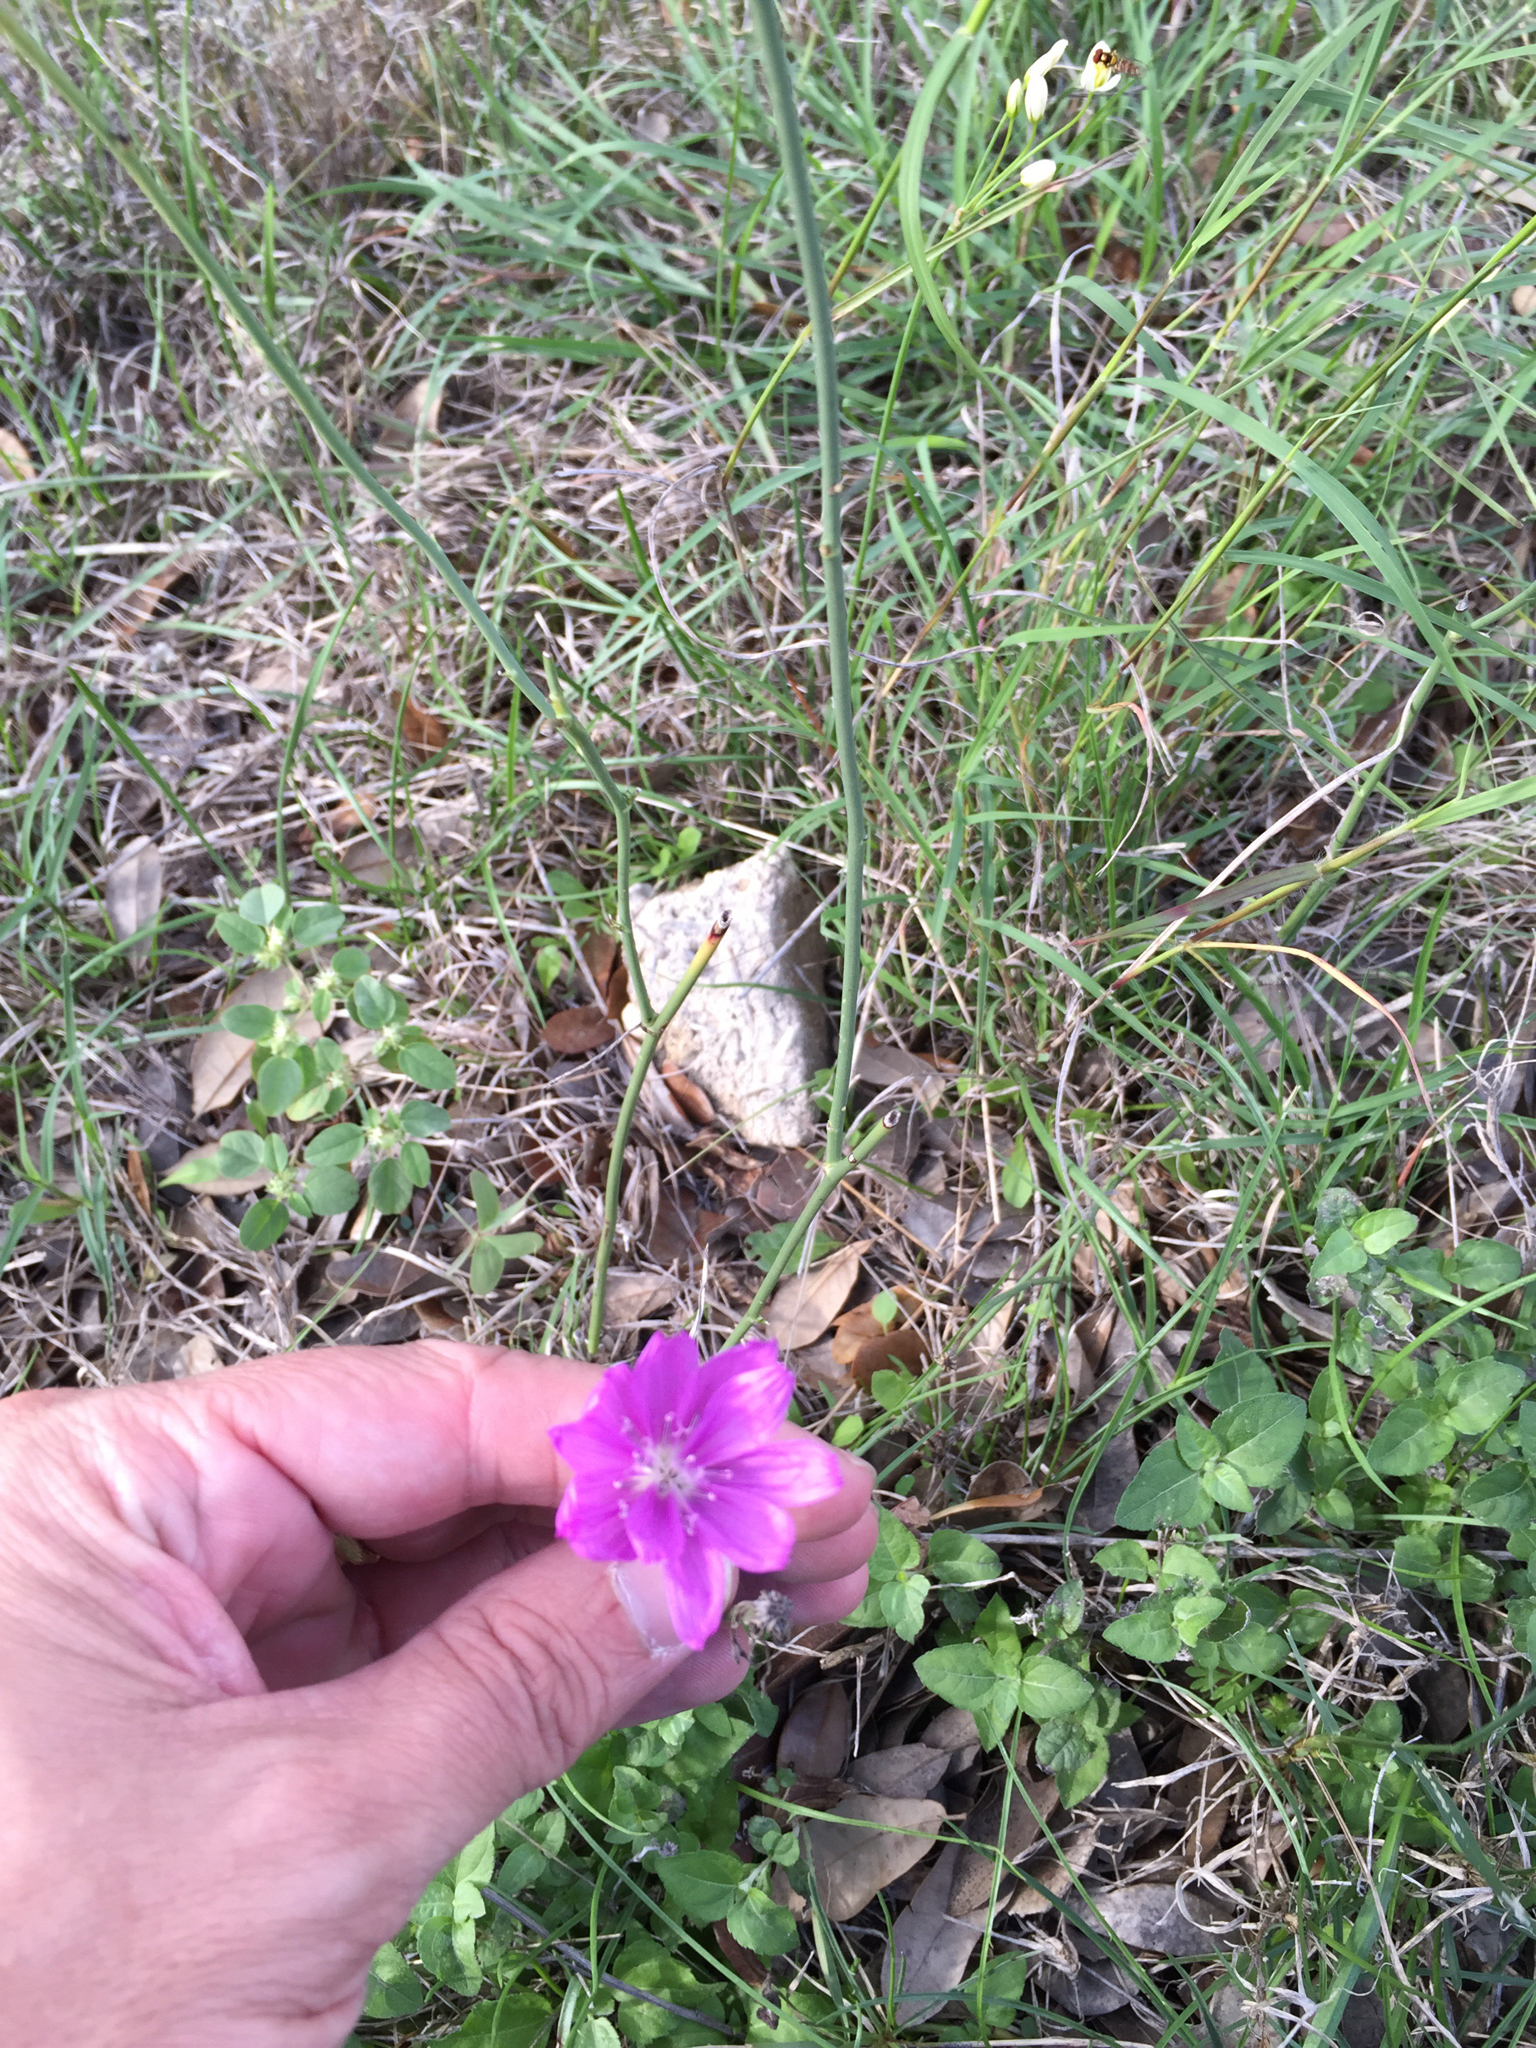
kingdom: Plantae
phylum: Tracheophyta
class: Magnoliopsida
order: Asterales
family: Asteraceae
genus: Lygodesmia
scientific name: Lygodesmia texana
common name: Texas skeleton-plant
